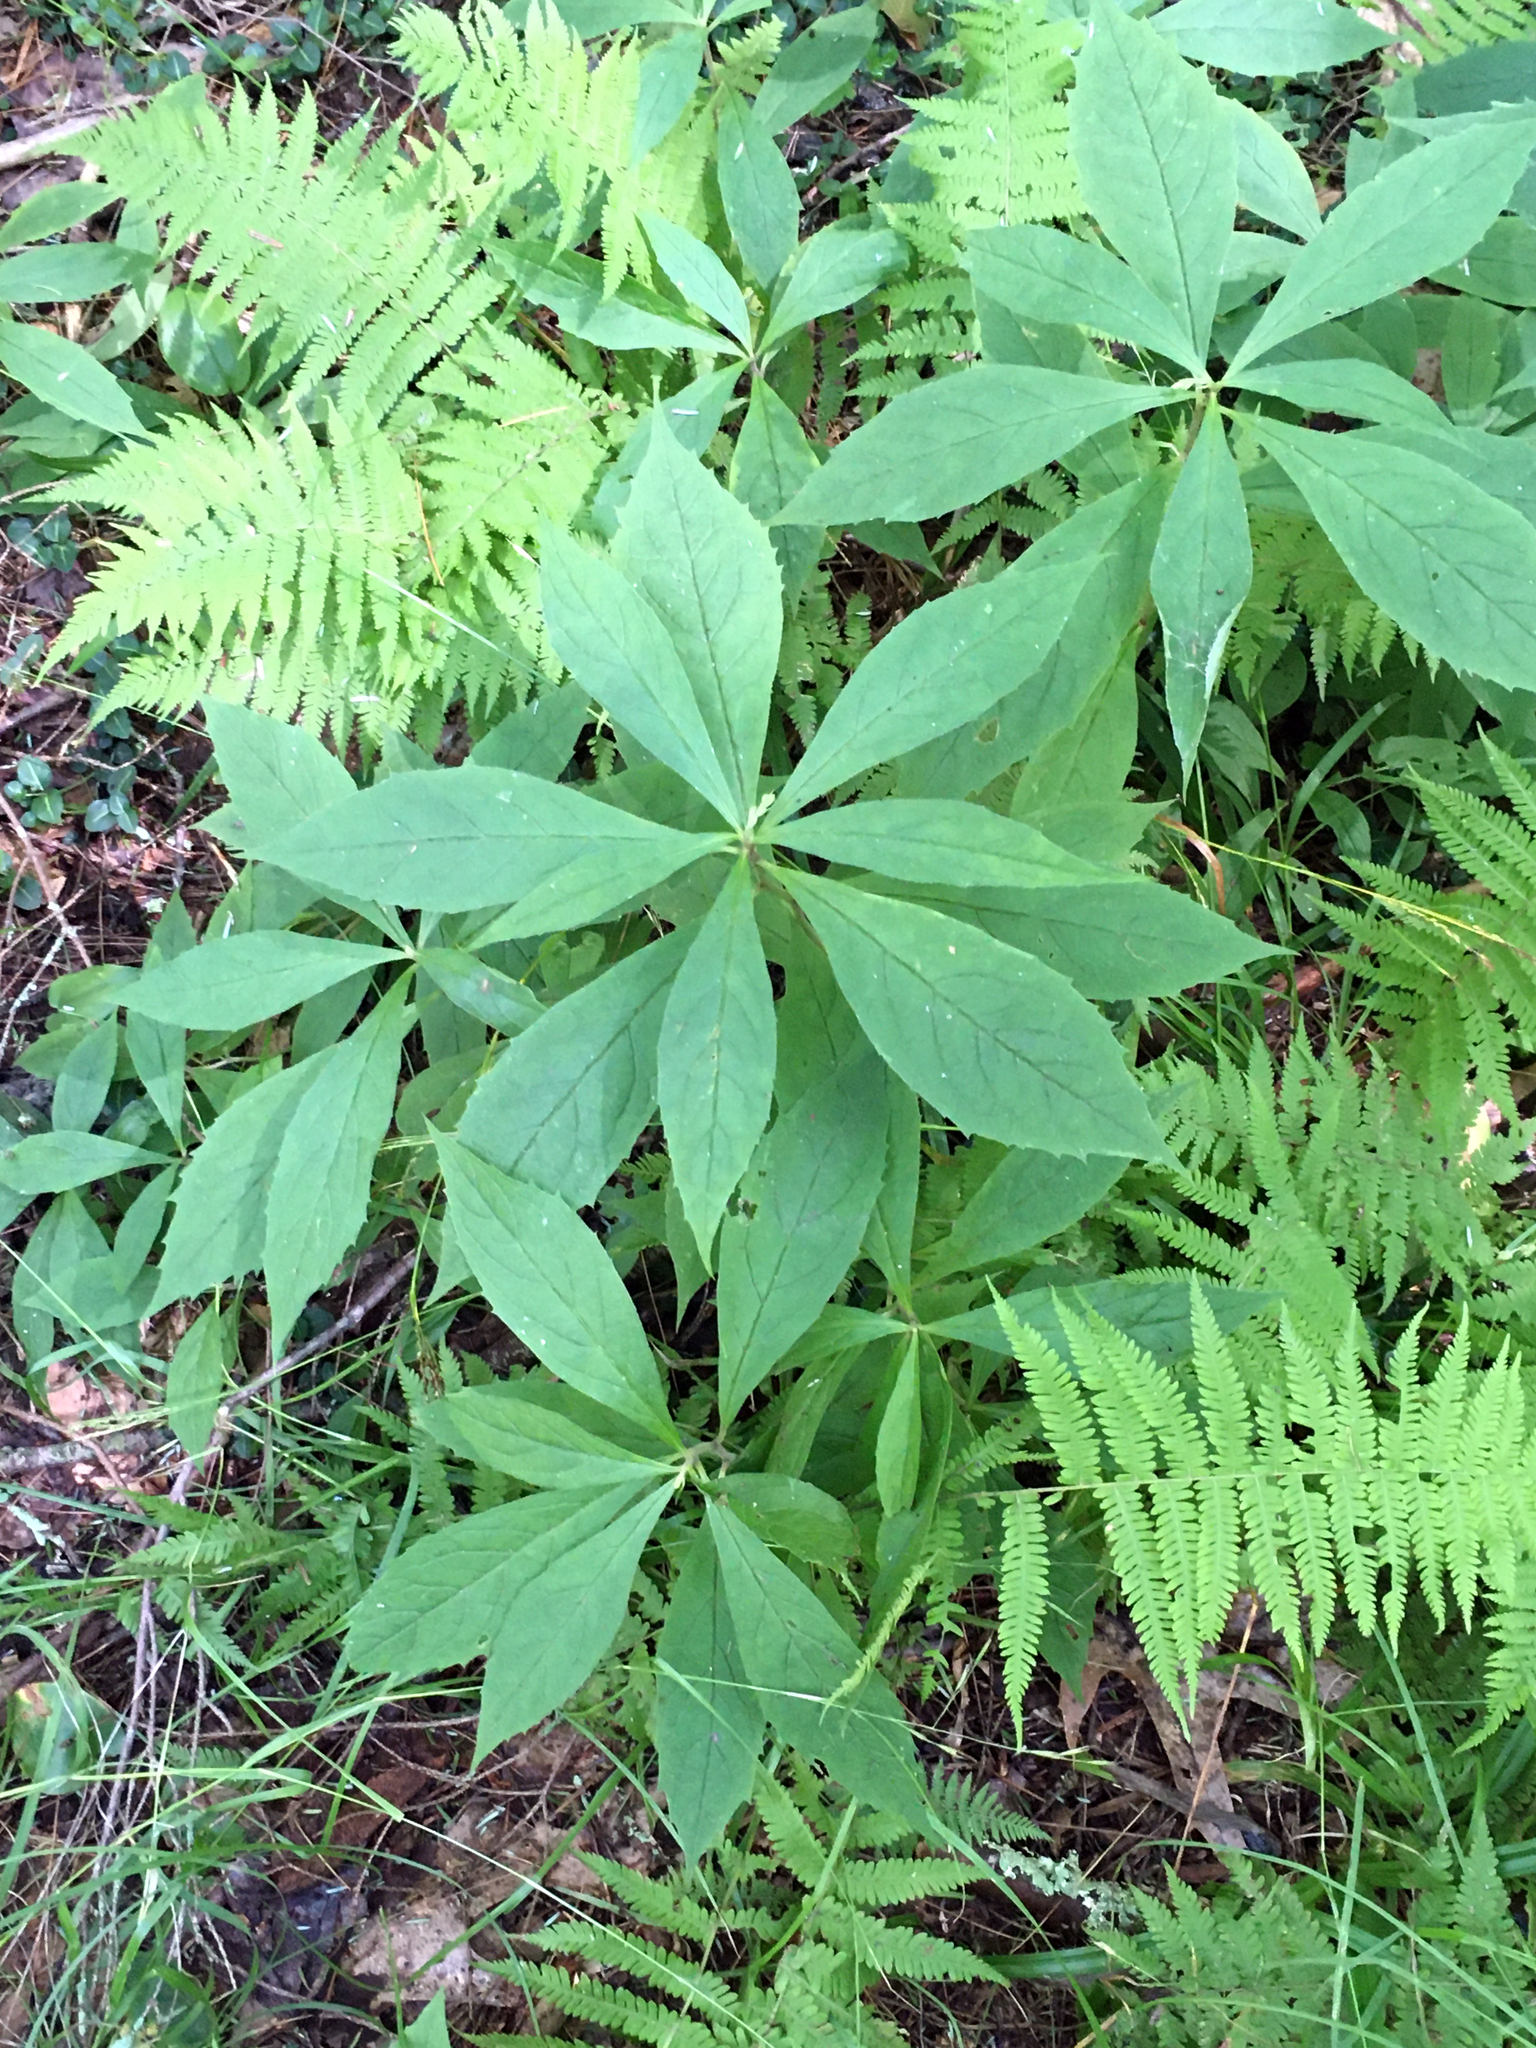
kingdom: Plantae
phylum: Tracheophyta
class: Magnoliopsida
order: Asterales
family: Asteraceae
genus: Oclemena
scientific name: Oclemena acuminata
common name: Mountain aster
